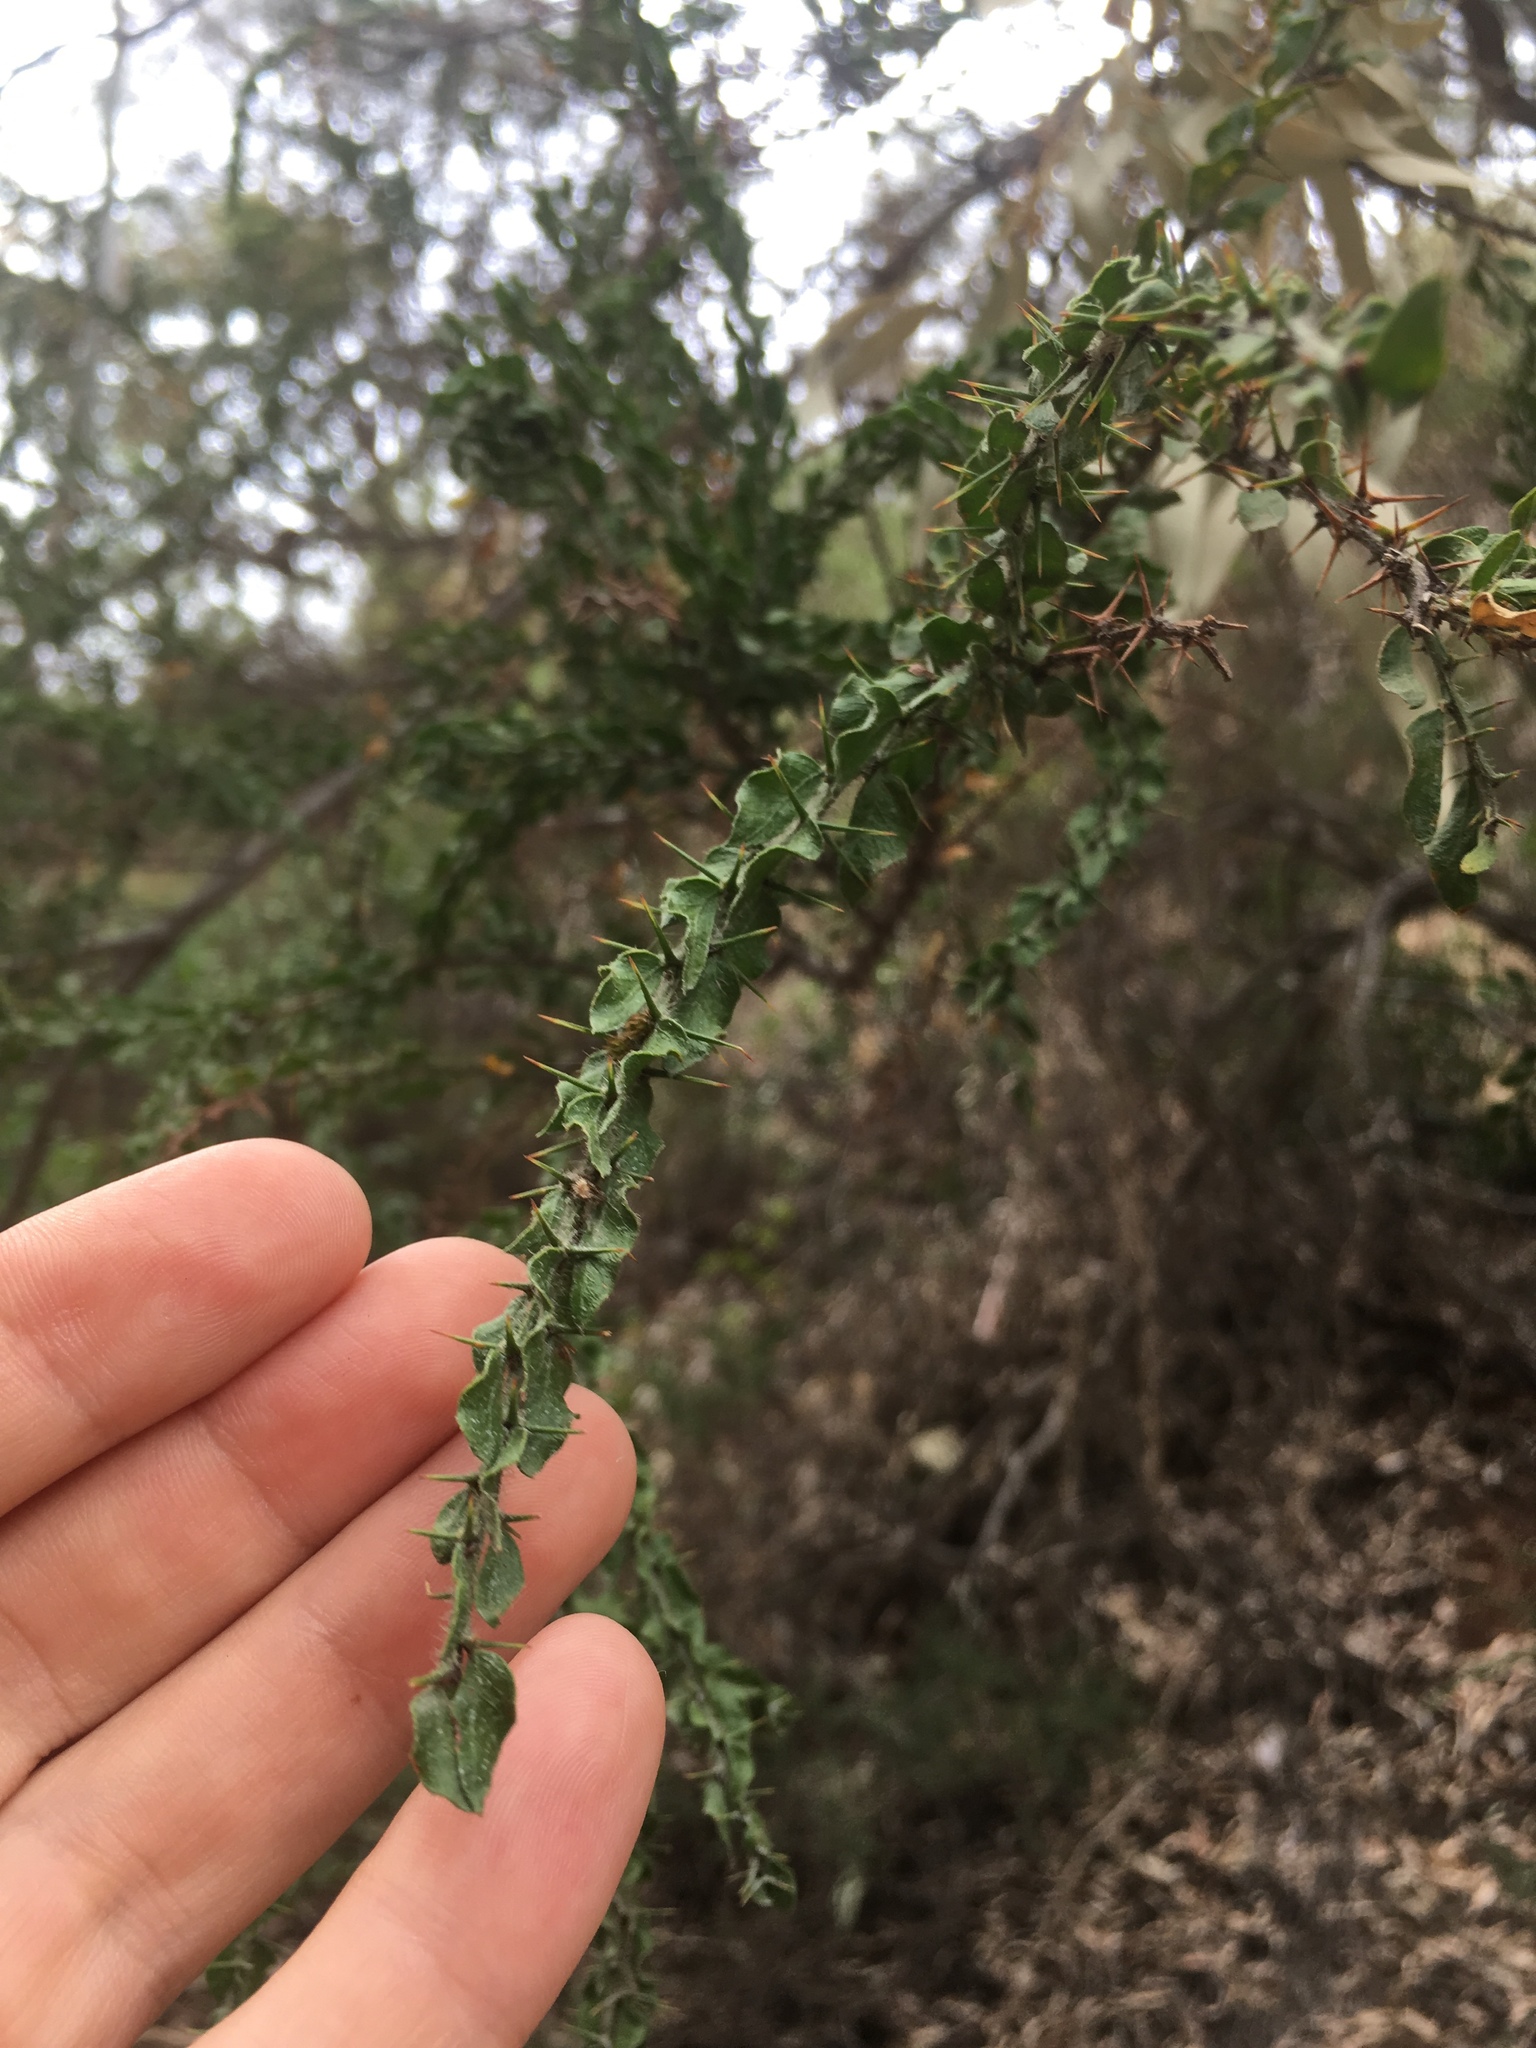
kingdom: Plantae
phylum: Tracheophyta
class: Magnoliopsida
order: Fabales
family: Fabaceae
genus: Acacia
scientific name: Acacia paradoxa
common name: Paradox acacia
